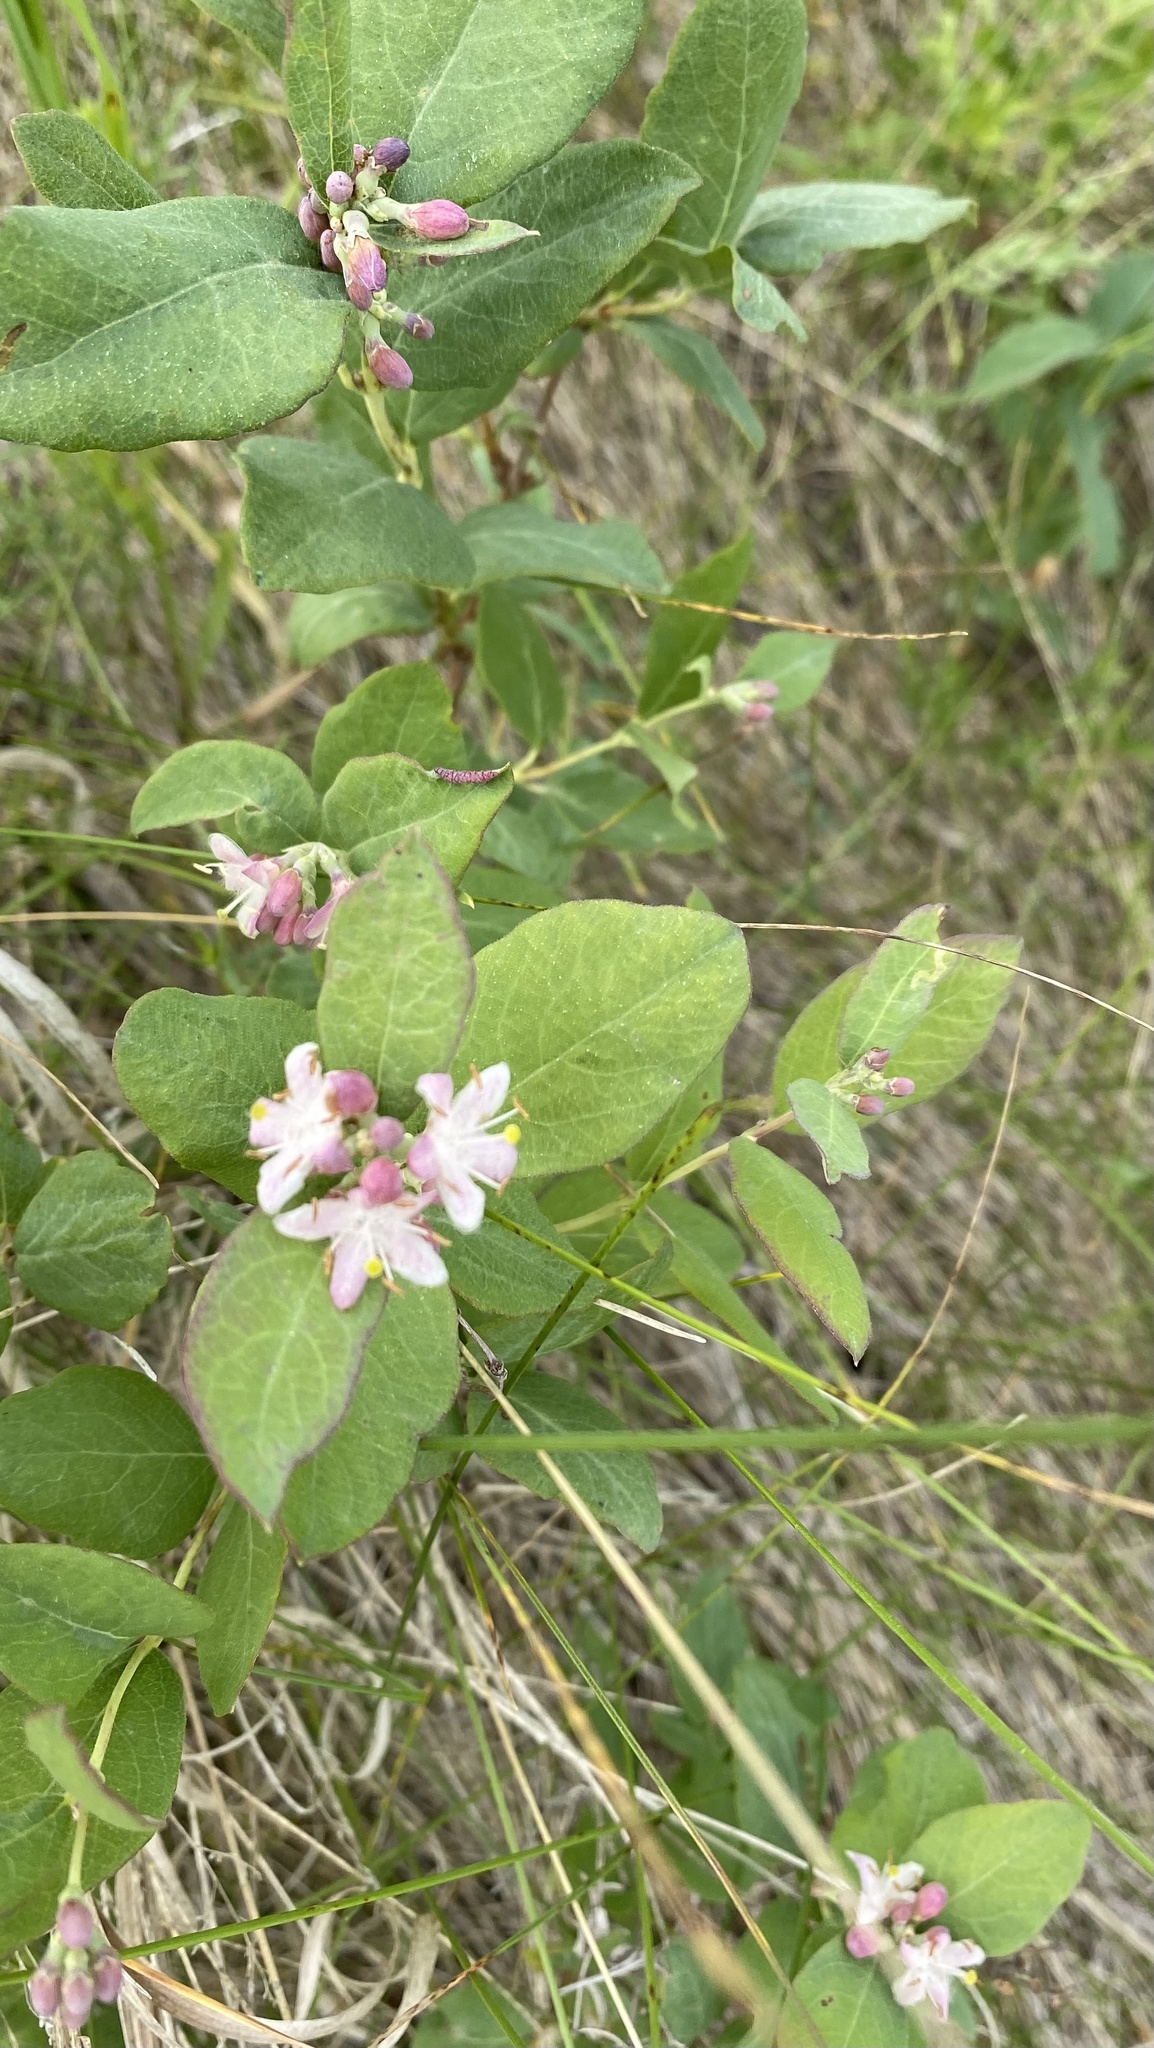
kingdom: Plantae
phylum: Tracheophyta
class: Magnoliopsida
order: Dipsacales
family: Caprifoliaceae
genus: Symphoricarpos
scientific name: Symphoricarpos occidentalis
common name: Wolfberry
